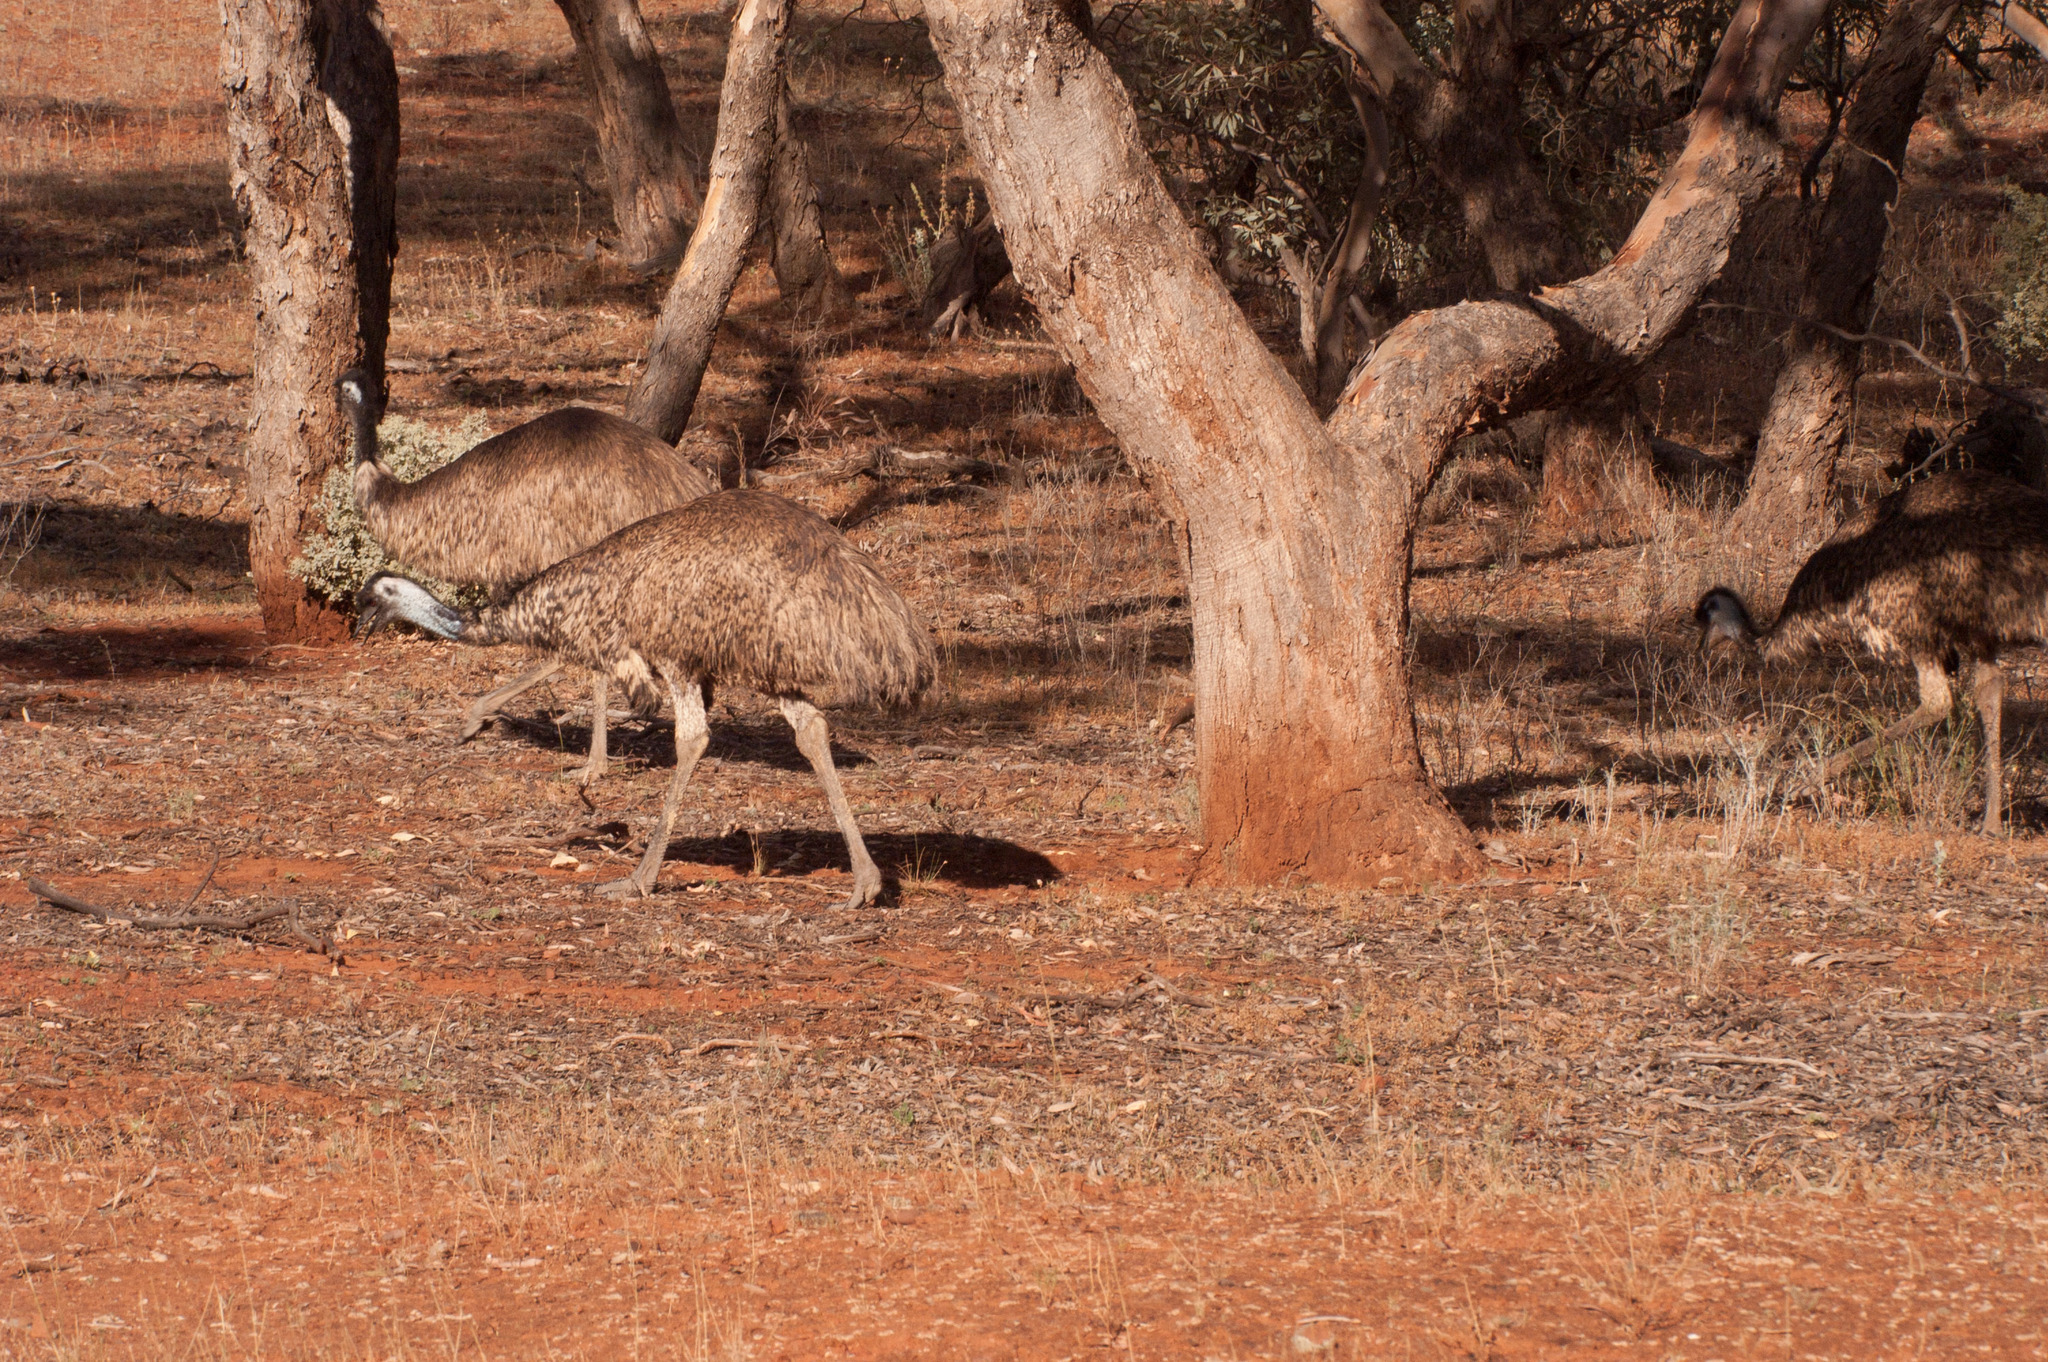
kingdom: Animalia
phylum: Chordata
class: Aves
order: Casuariiformes
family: Dromaiidae
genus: Dromaius
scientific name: Dromaius novaehollandiae
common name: Emu
